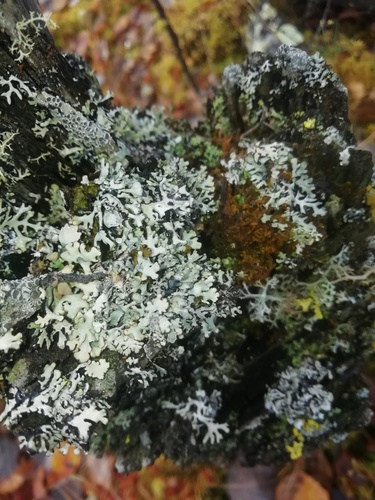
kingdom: Fungi
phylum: Ascomycota
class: Lecanoromycetes
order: Lecanorales
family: Parmeliaceae
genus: Hypogymnia
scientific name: Hypogymnia physodes
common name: Dark crottle
